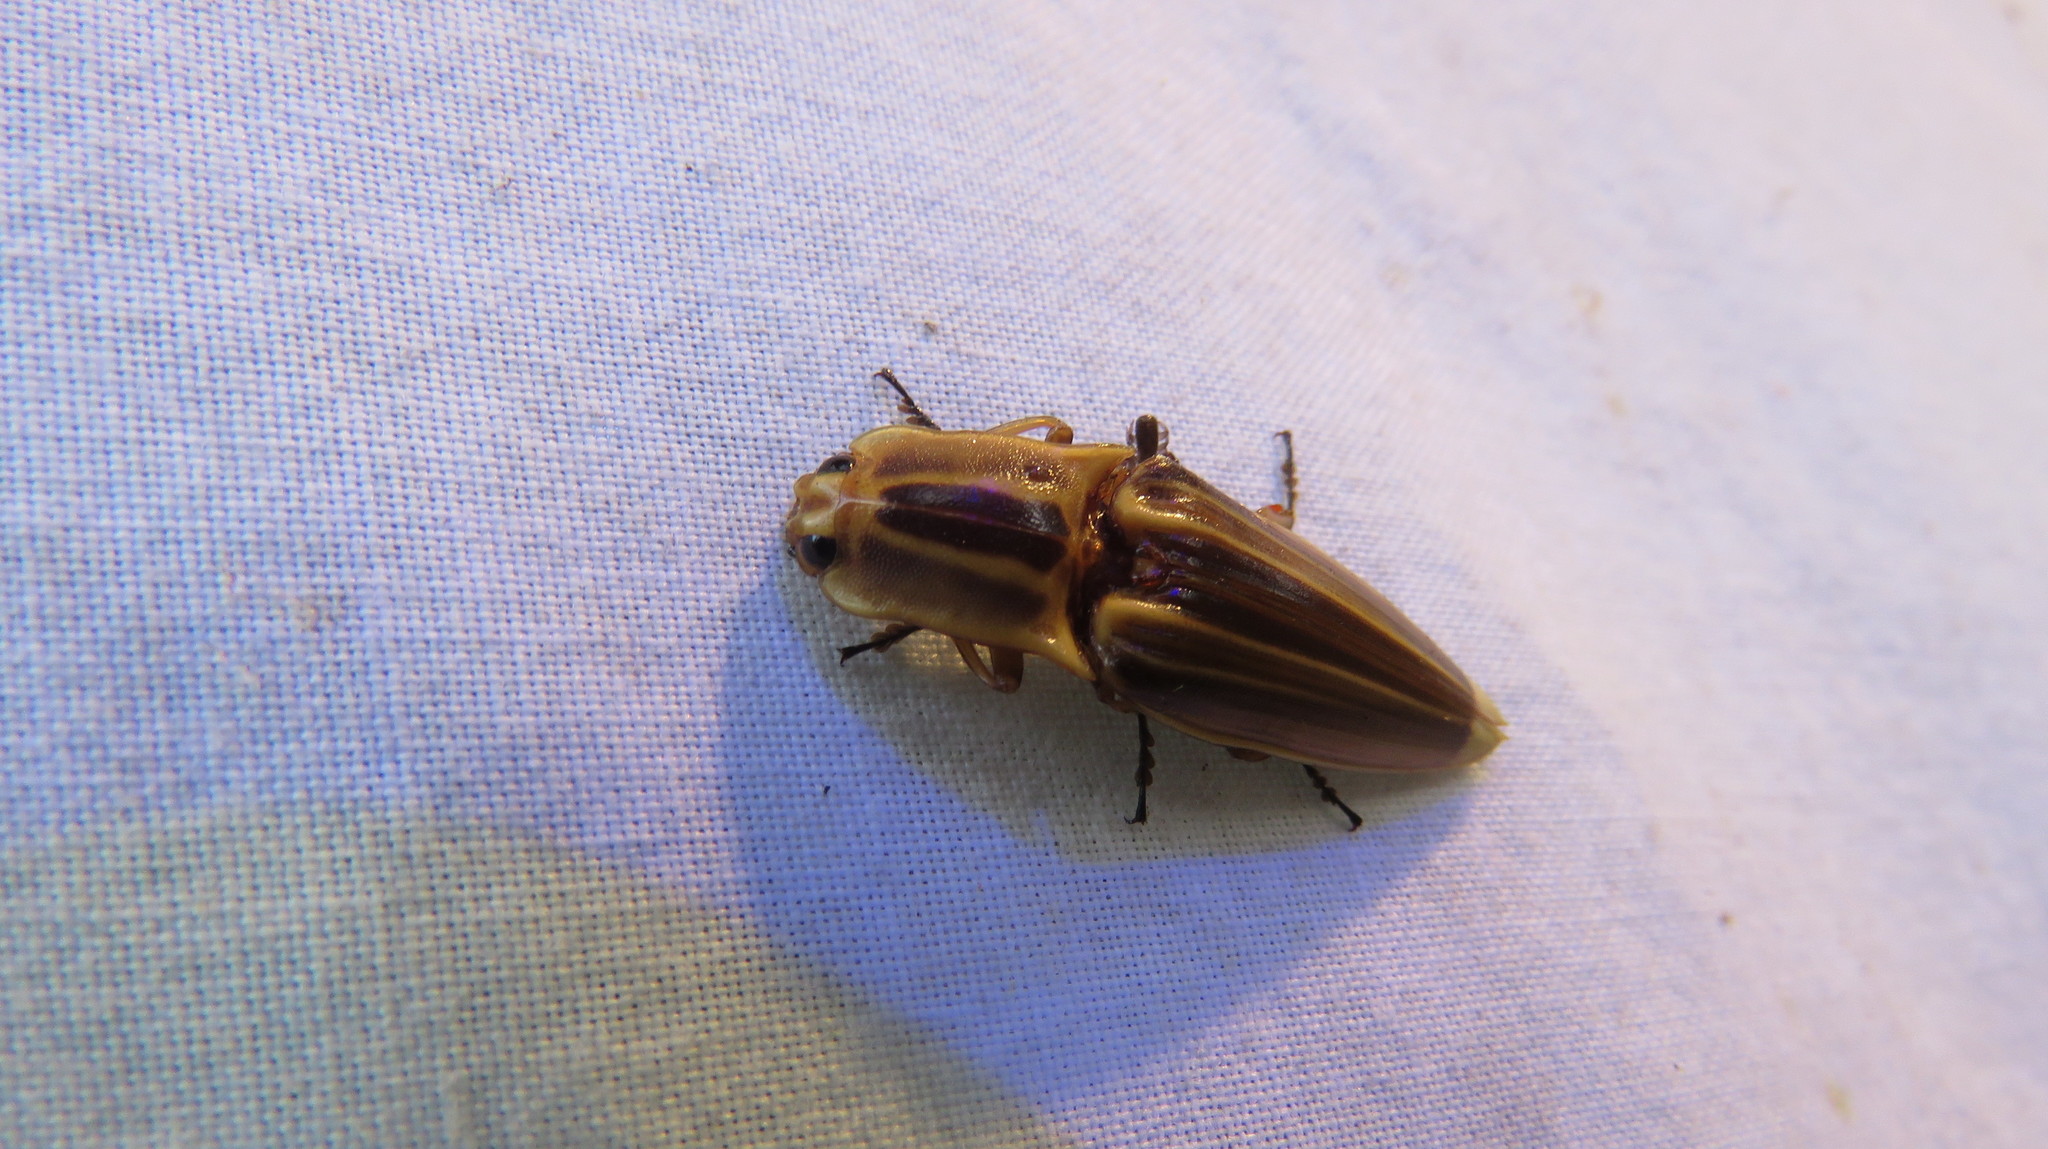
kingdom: Animalia
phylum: Arthropoda
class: Insecta
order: Coleoptera
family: Elateridae
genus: Semiotus
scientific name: Semiotus ligneus
